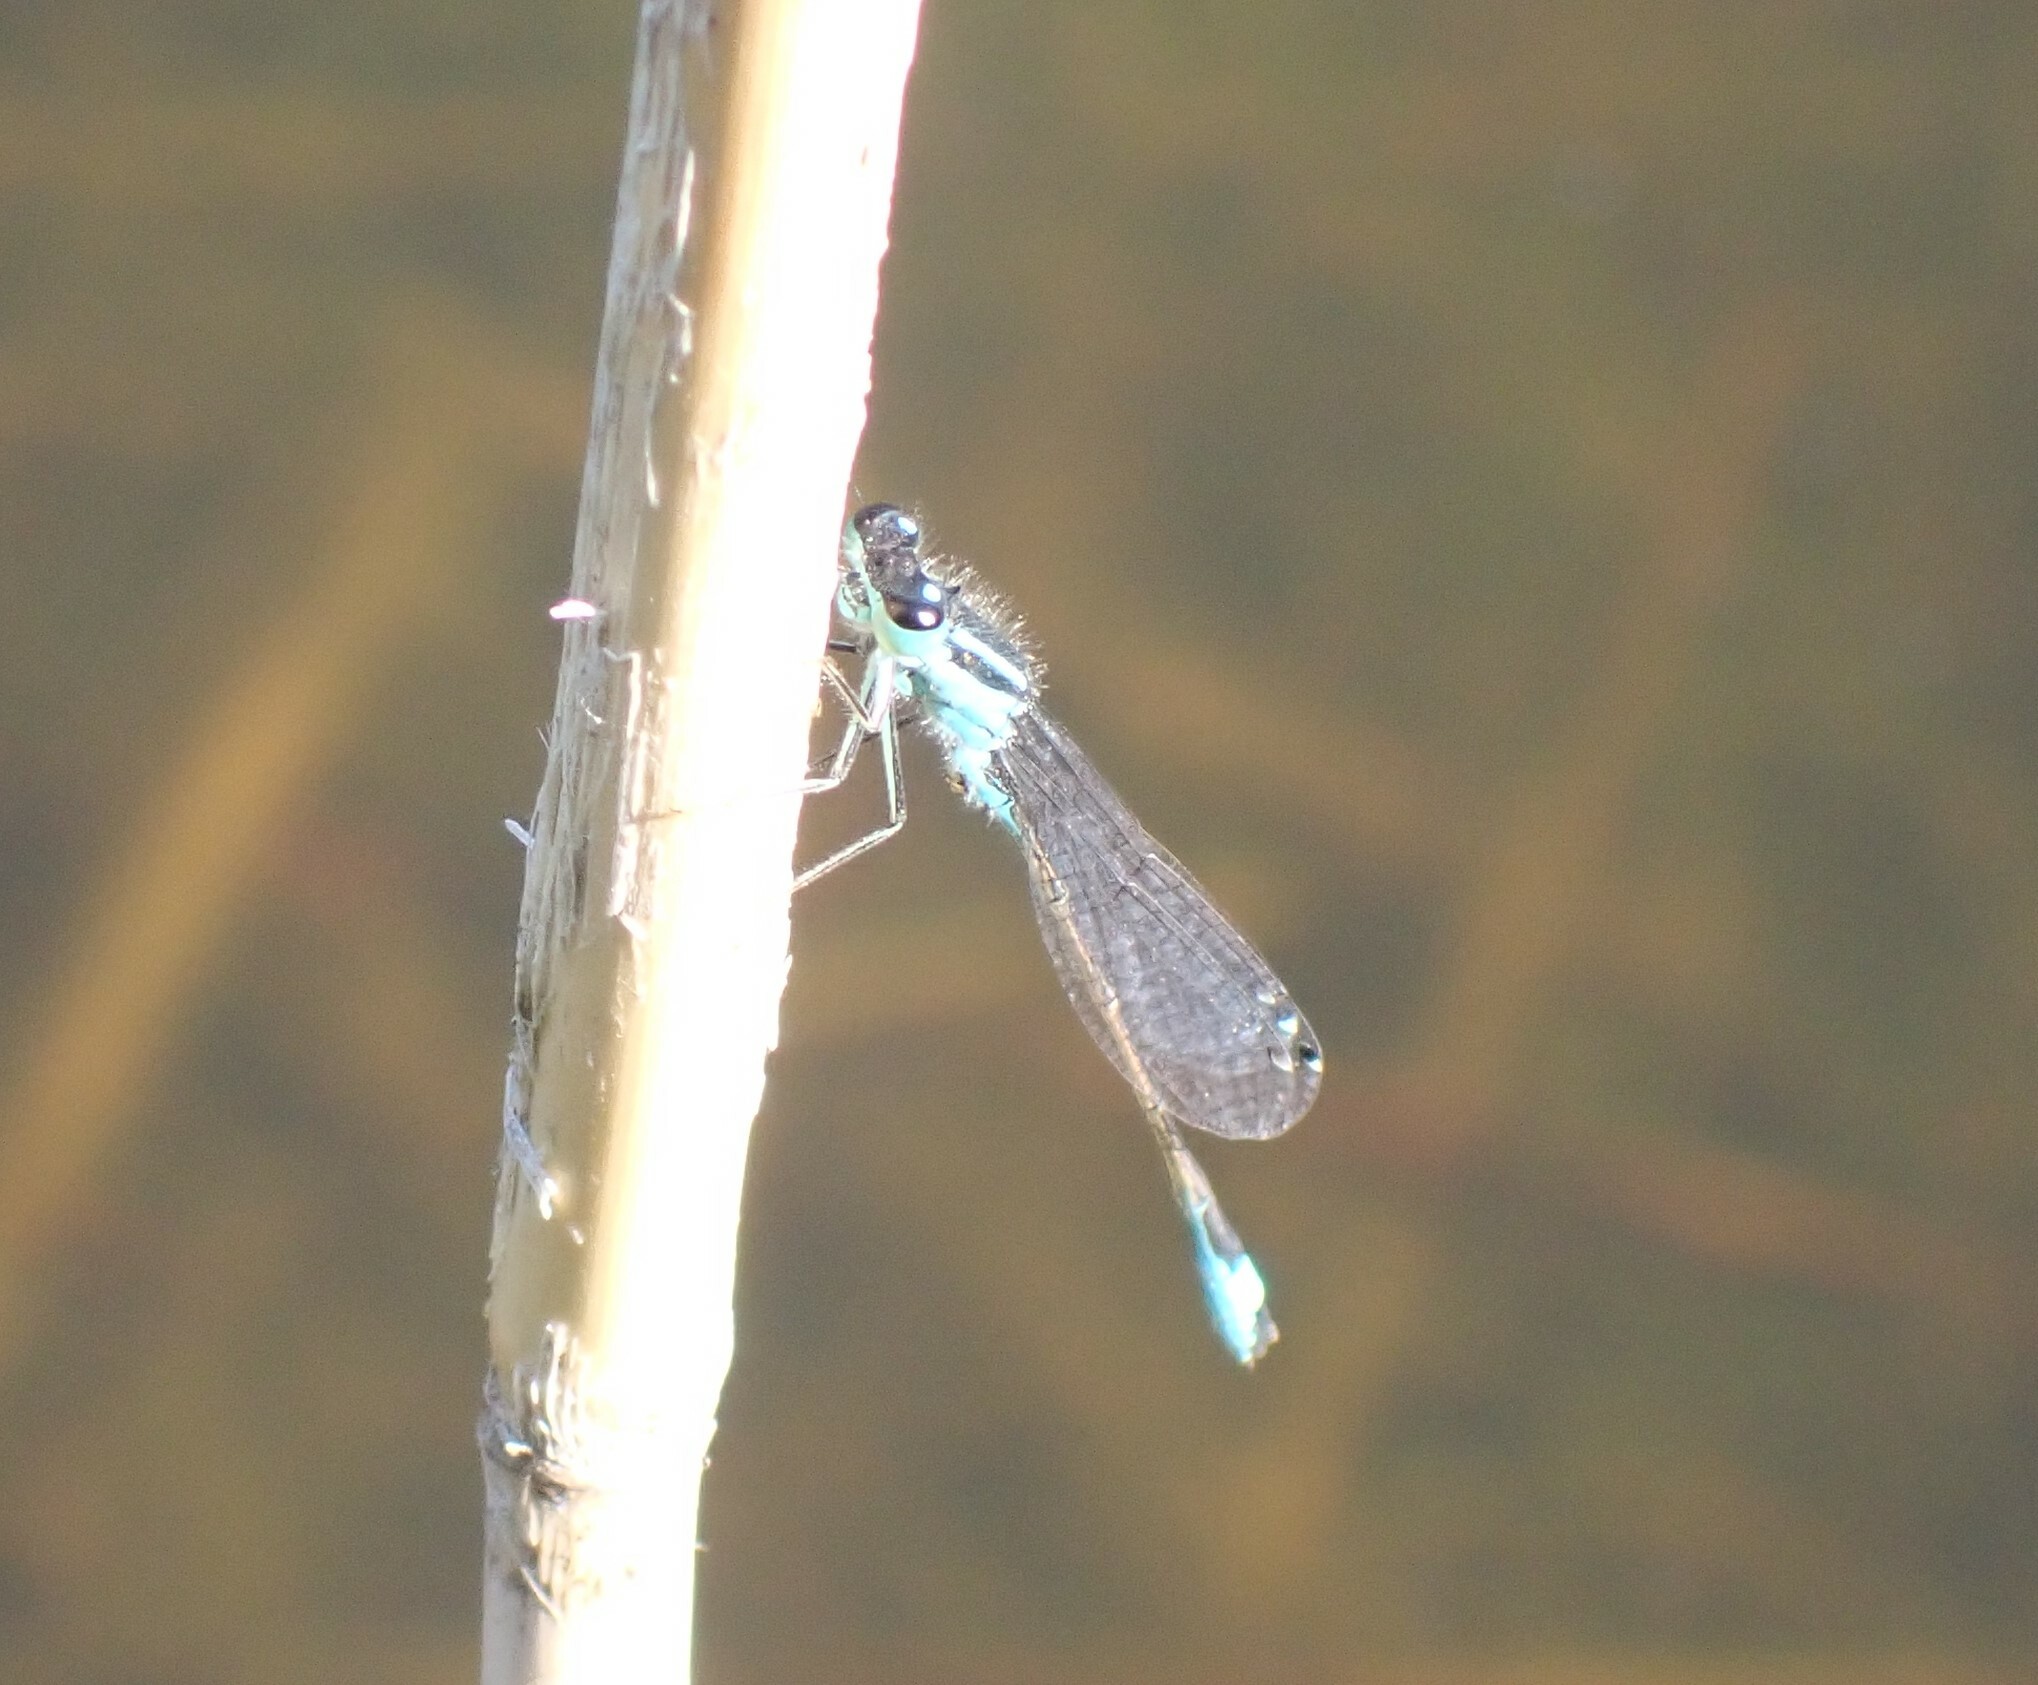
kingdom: Animalia
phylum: Arthropoda
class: Insecta
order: Odonata
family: Coenagrionidae
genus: Ischnura
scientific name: Ischnura elegans
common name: Blue-tailed damselfly
